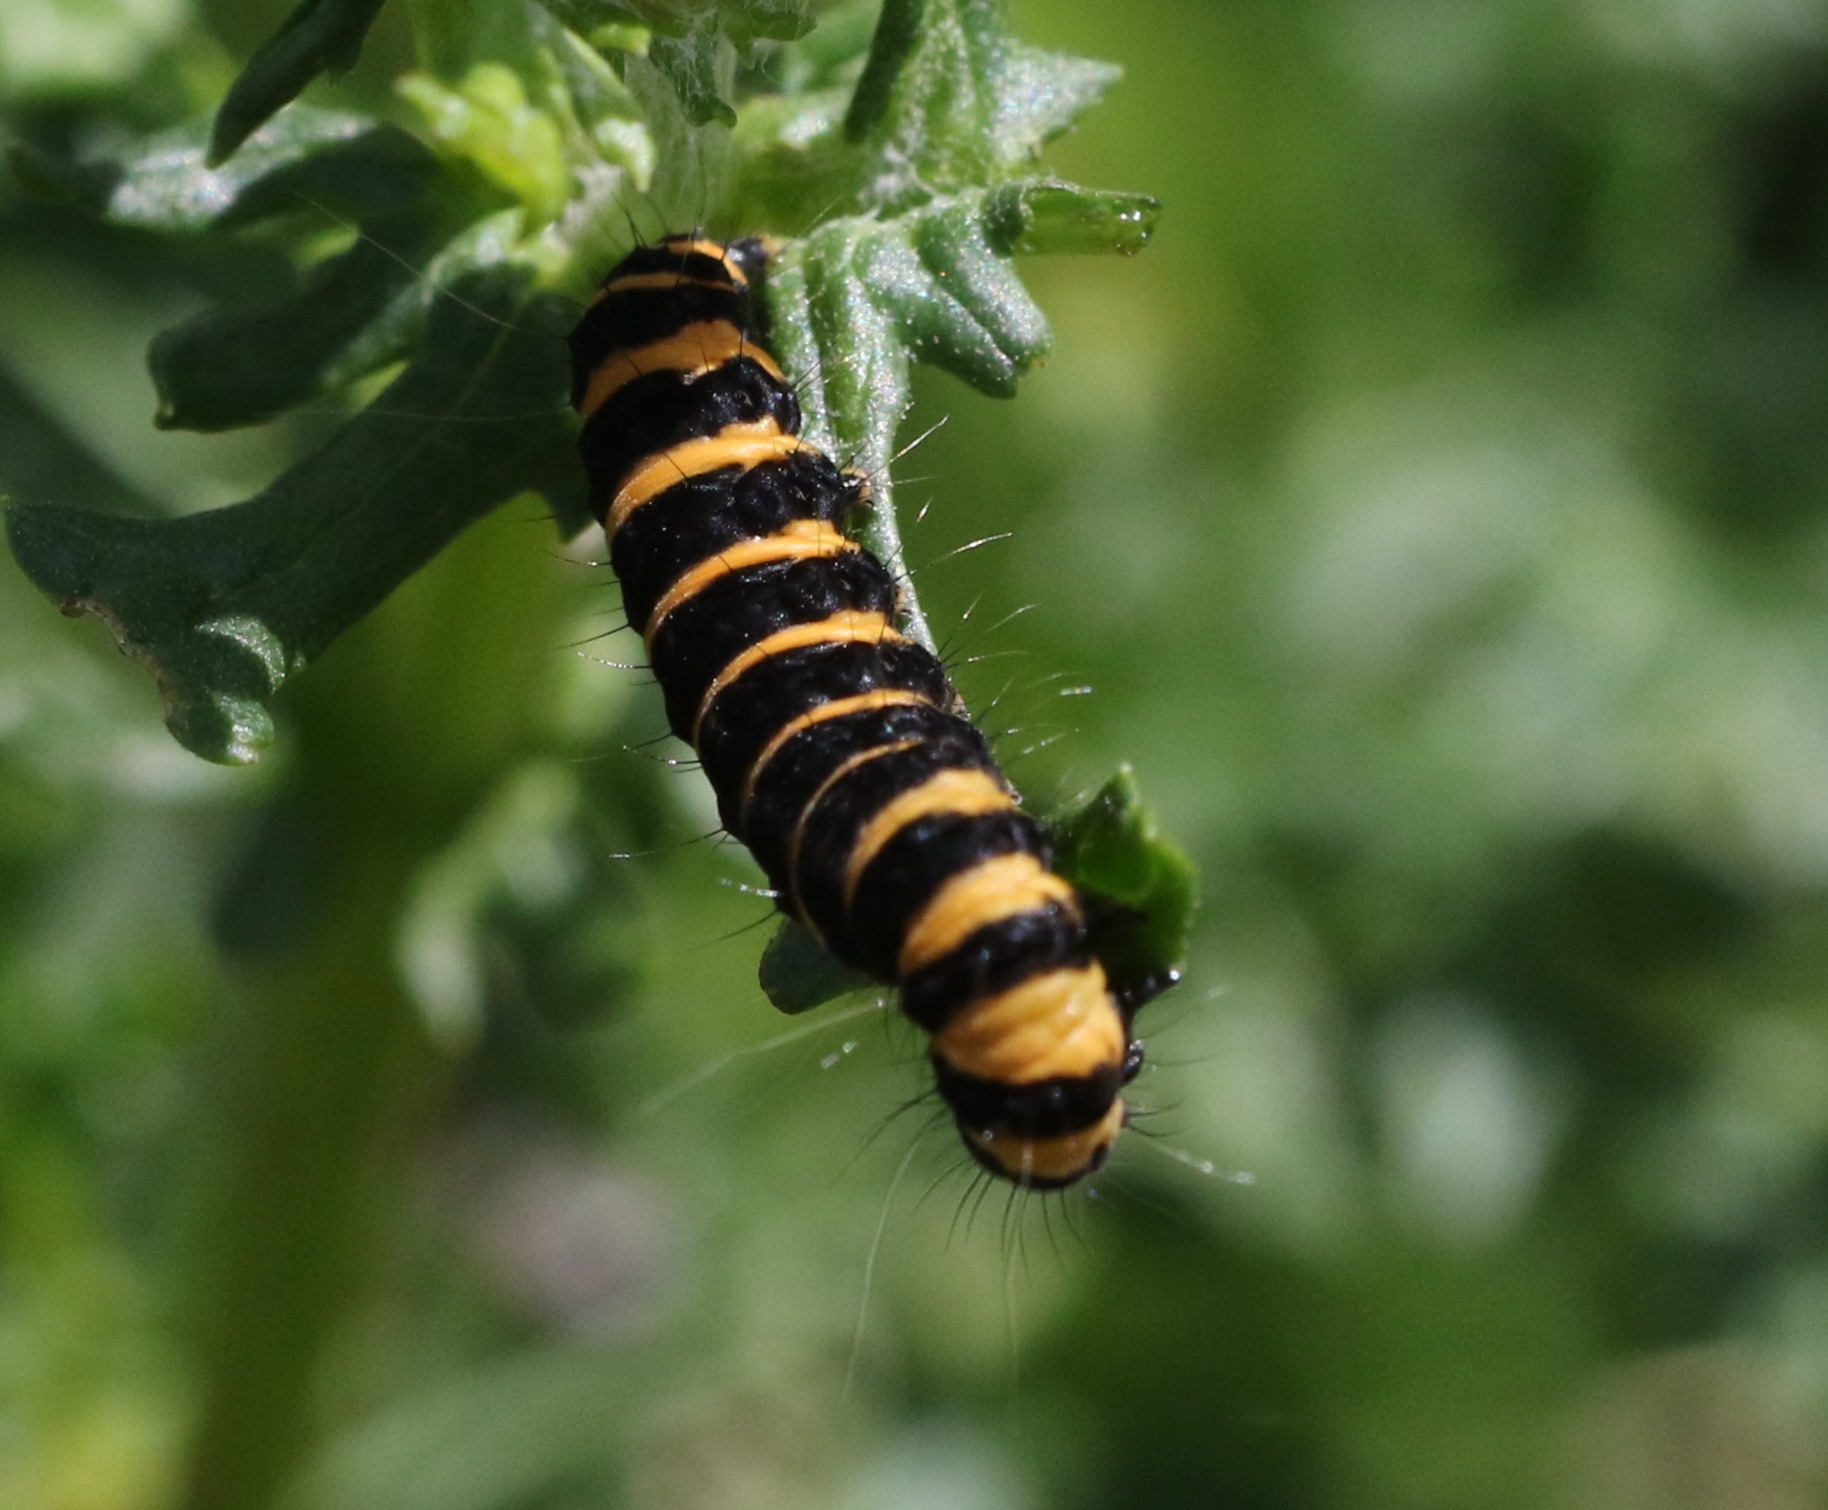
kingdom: Animalia
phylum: Arthropoda
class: Insecta
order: Lepidoptera
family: Erebidae
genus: Tyria
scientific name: Tyria jacobaeae
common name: Cinnabar
